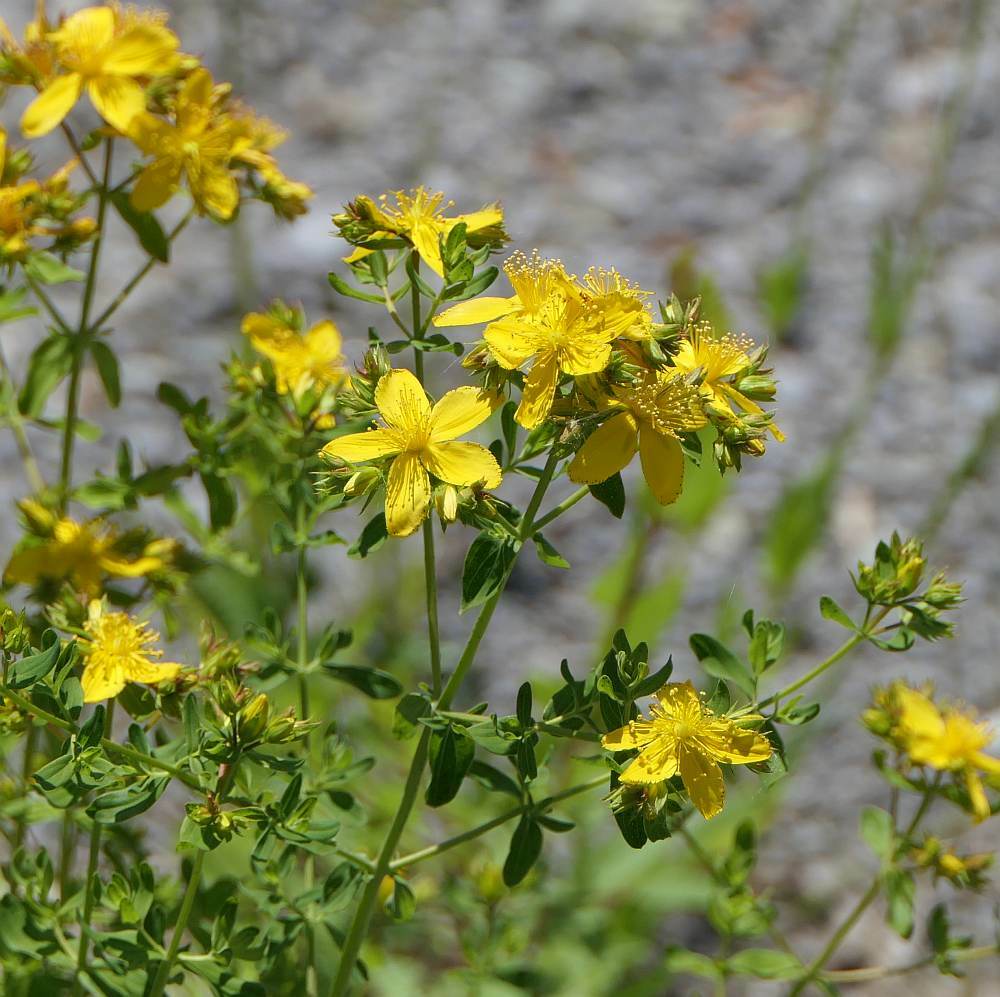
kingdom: Plantae
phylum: Tracheophyta
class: Magnoliopsida
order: Malpighiales
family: Hypericaceae
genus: Hypericum
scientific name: Hypericum perforatum
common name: Common st. johnswort
